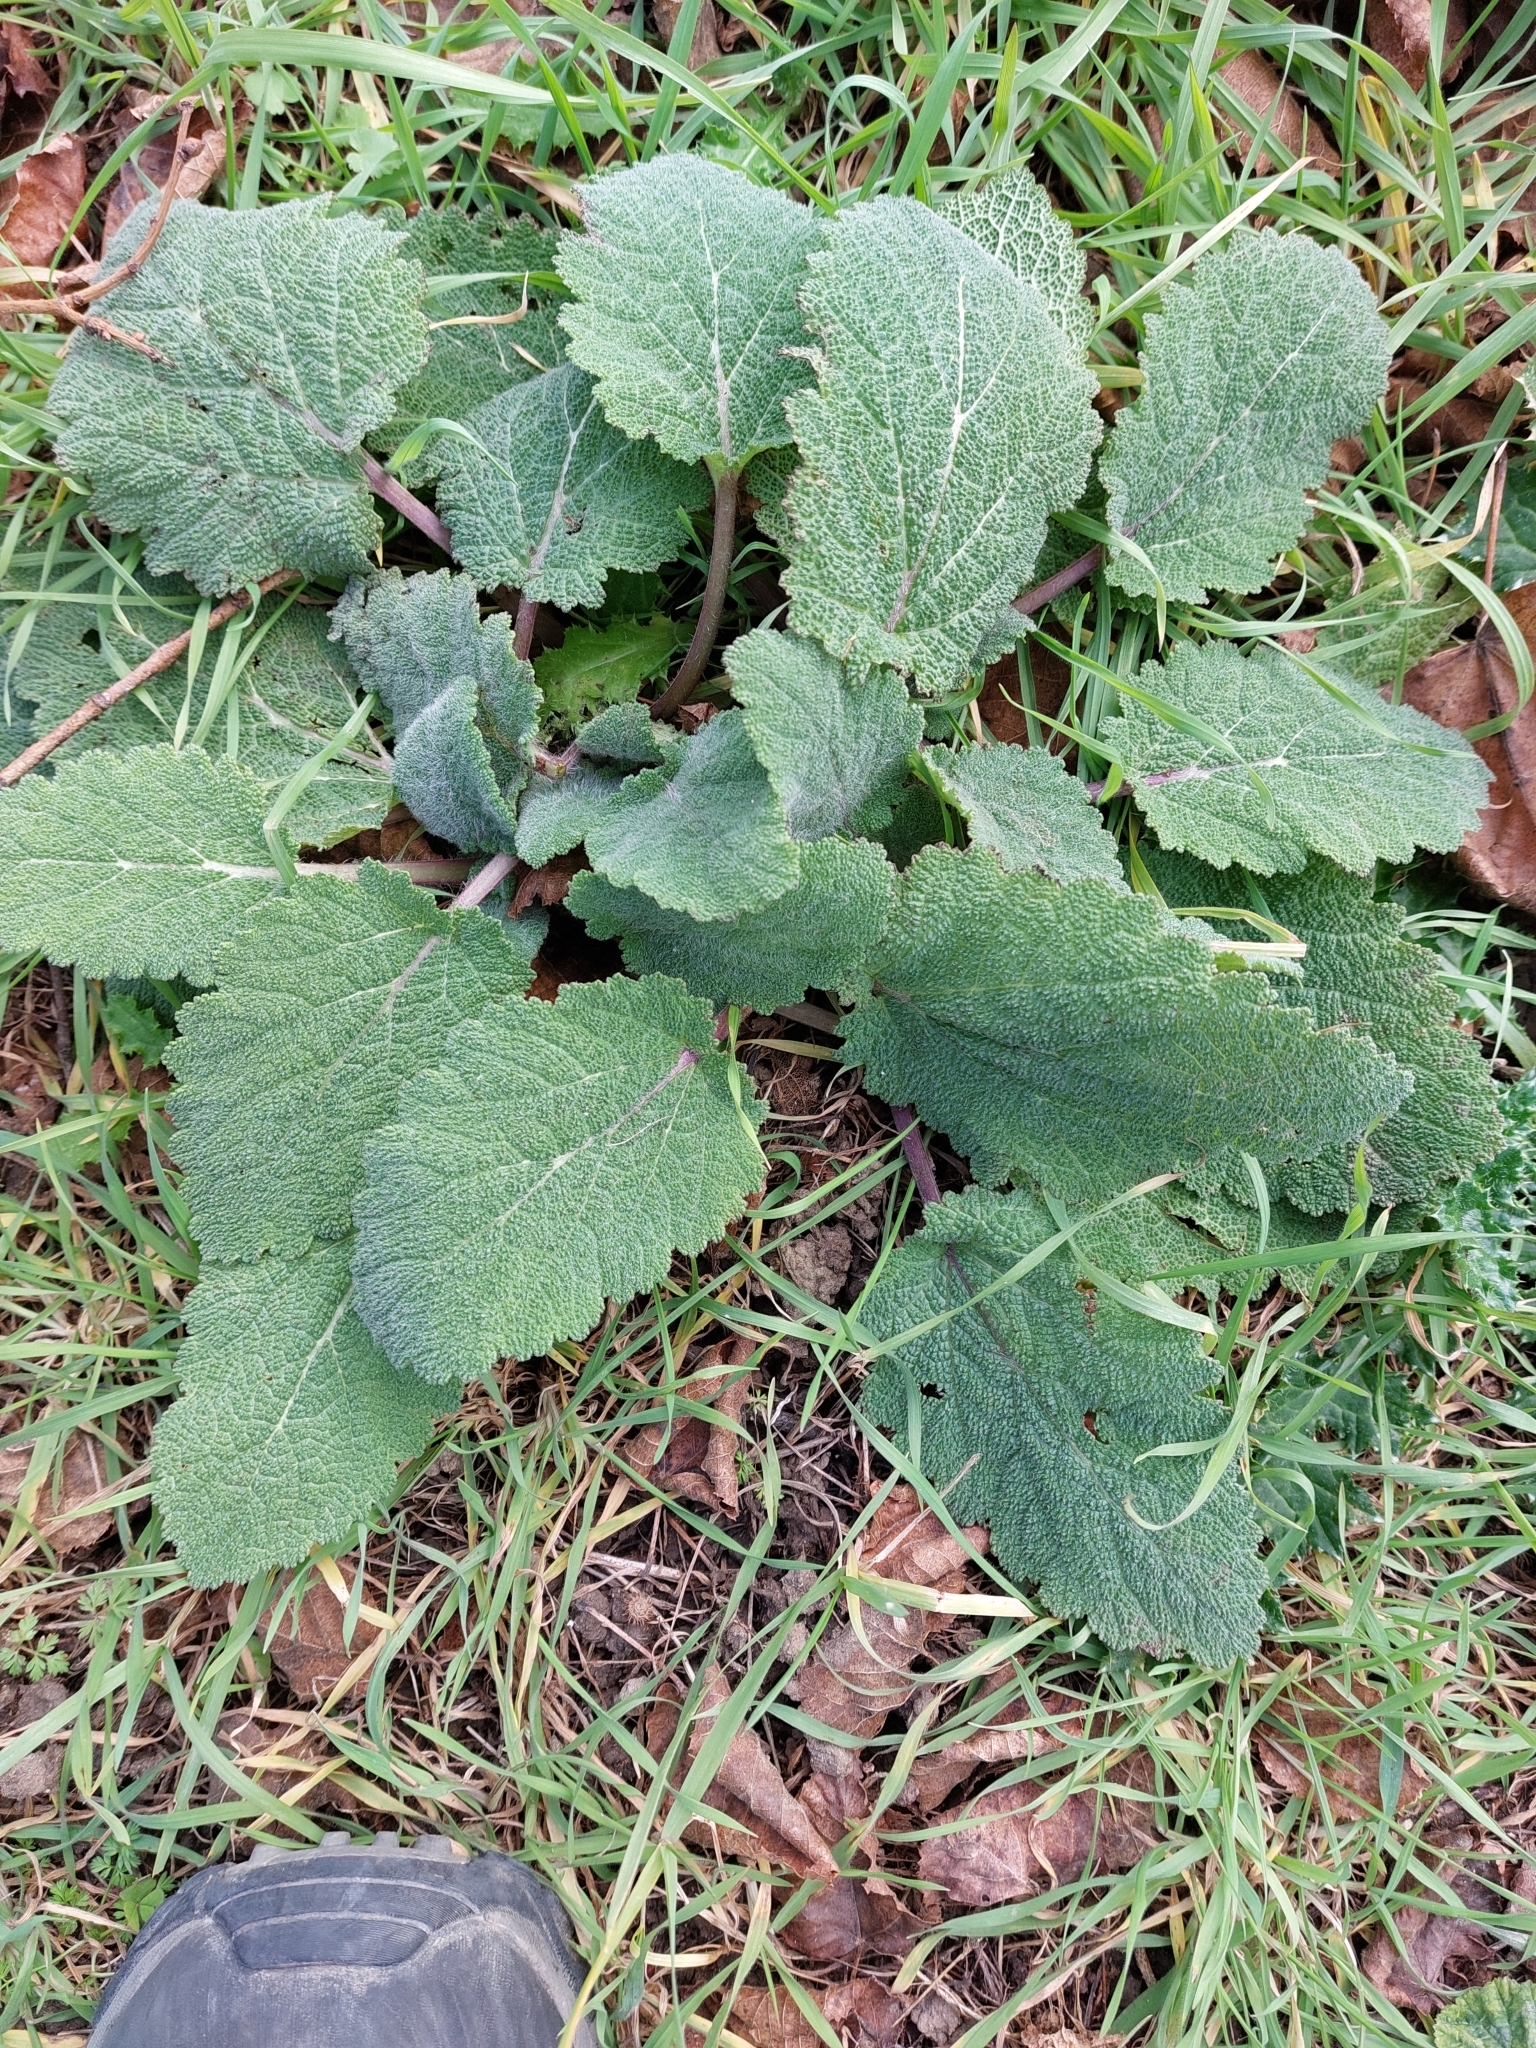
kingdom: Plantae
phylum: Tracheophyta
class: Magnoliopsida
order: Lamiales
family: Lamiaceae
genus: Salvia
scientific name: Salvia sclarea
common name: Clary
